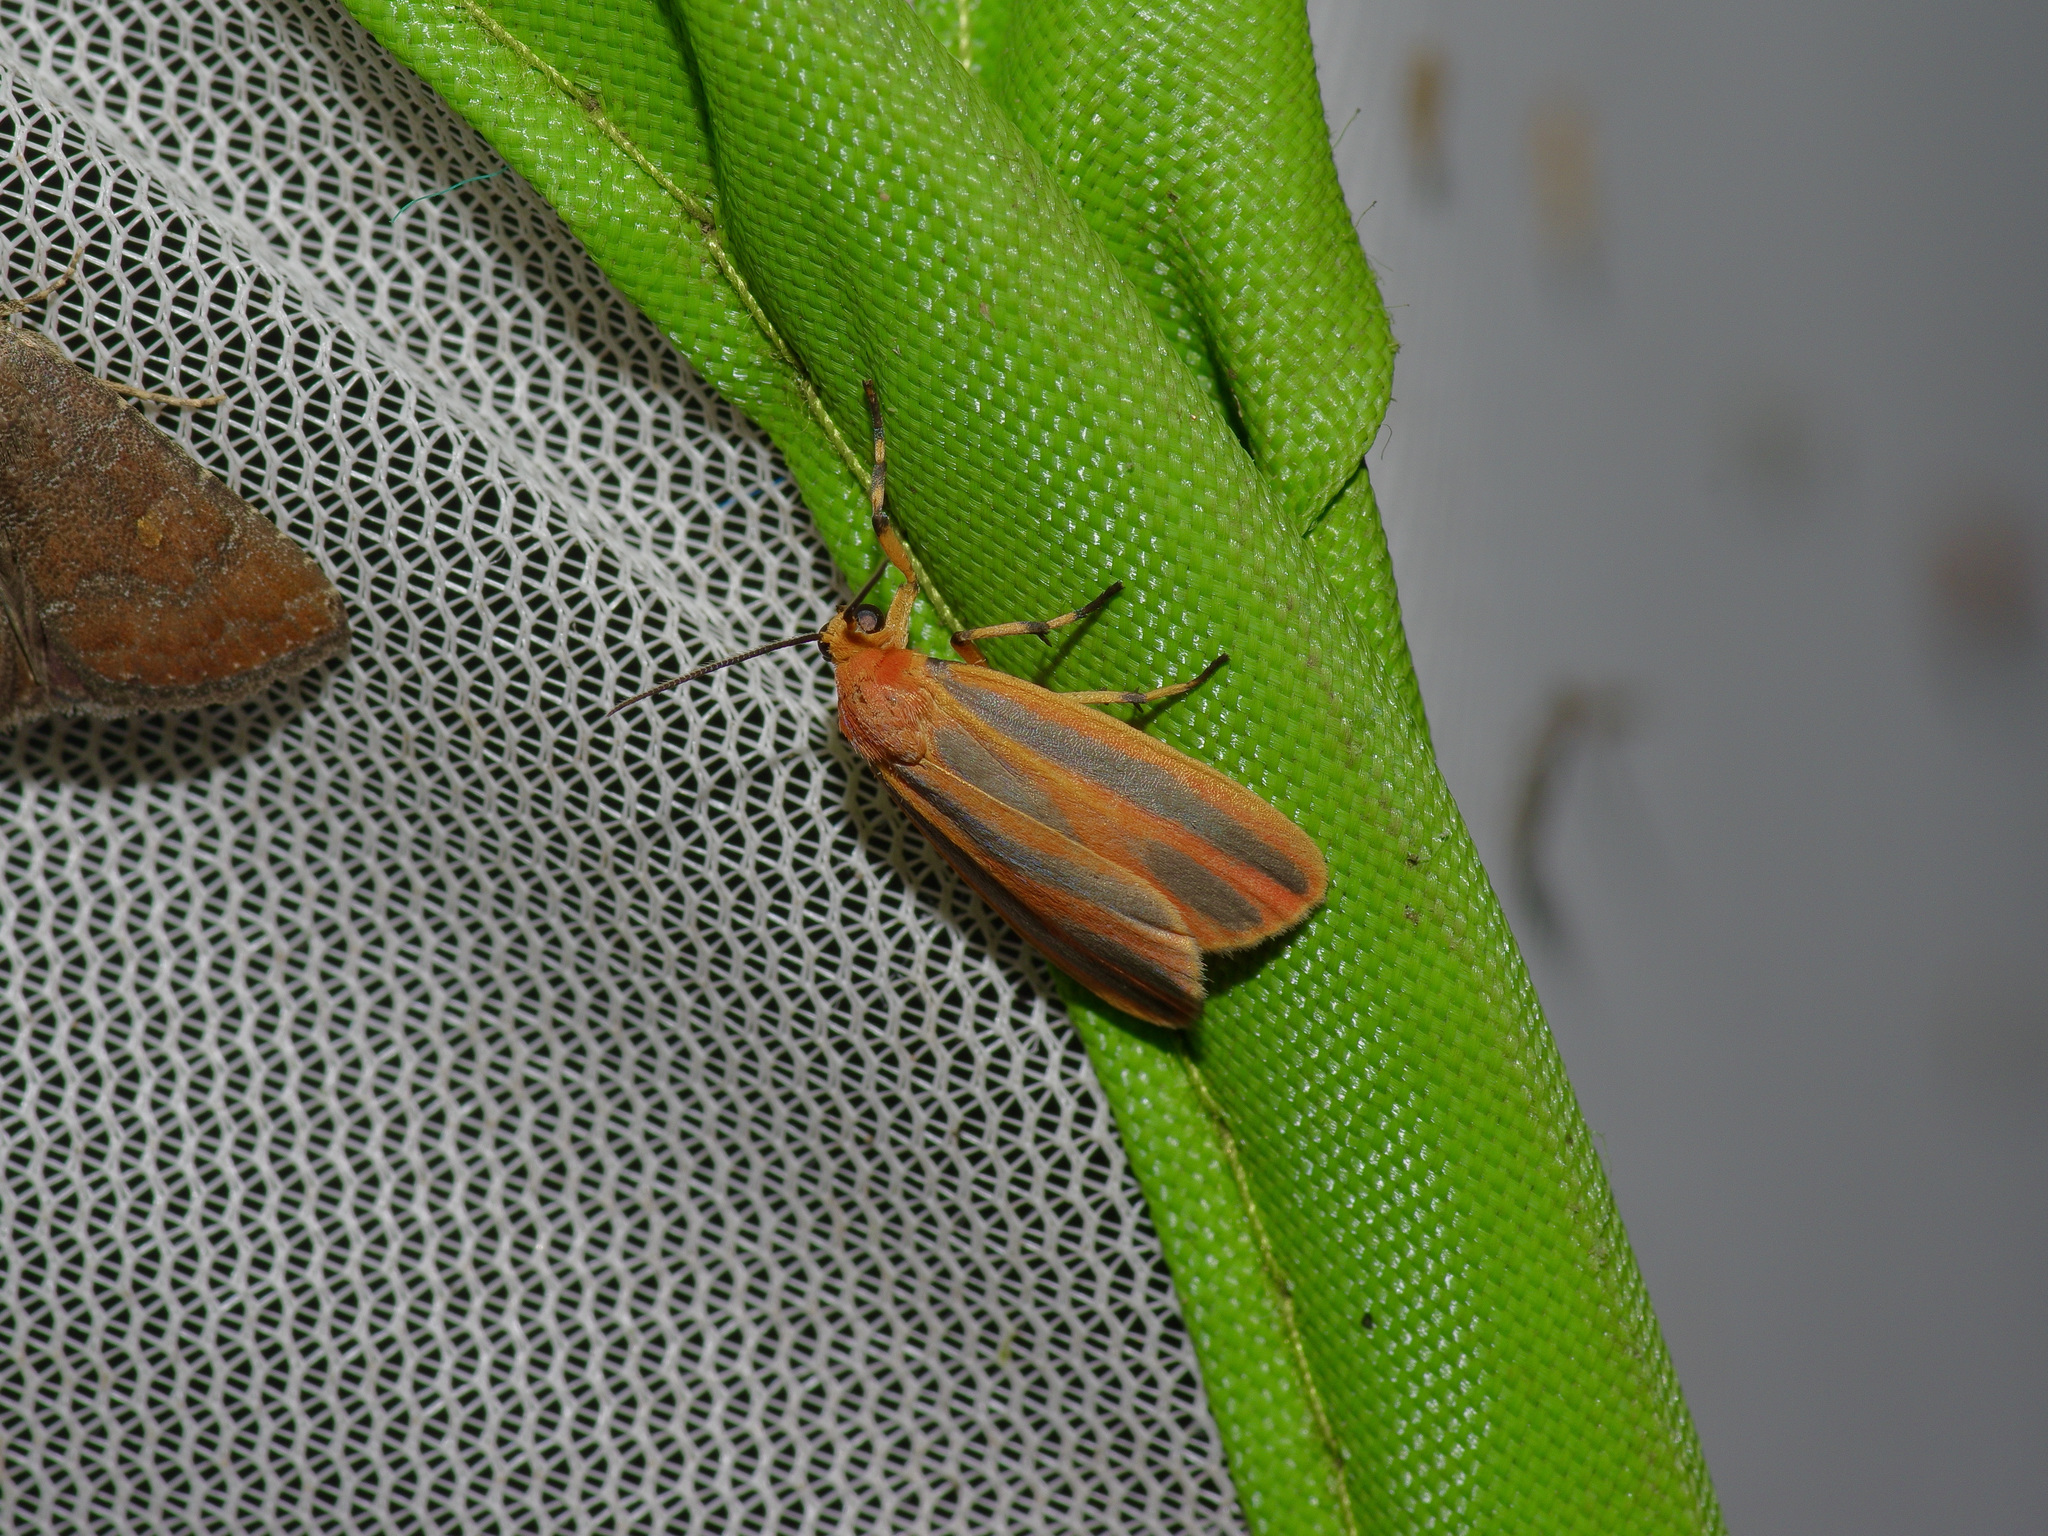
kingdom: Animalia
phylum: Arthropoda
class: Insecta
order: Lepidoptera
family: Erebidae
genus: Hypoprepia
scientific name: Hypoprepia miniata
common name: Scarlet-winged lichen moth
